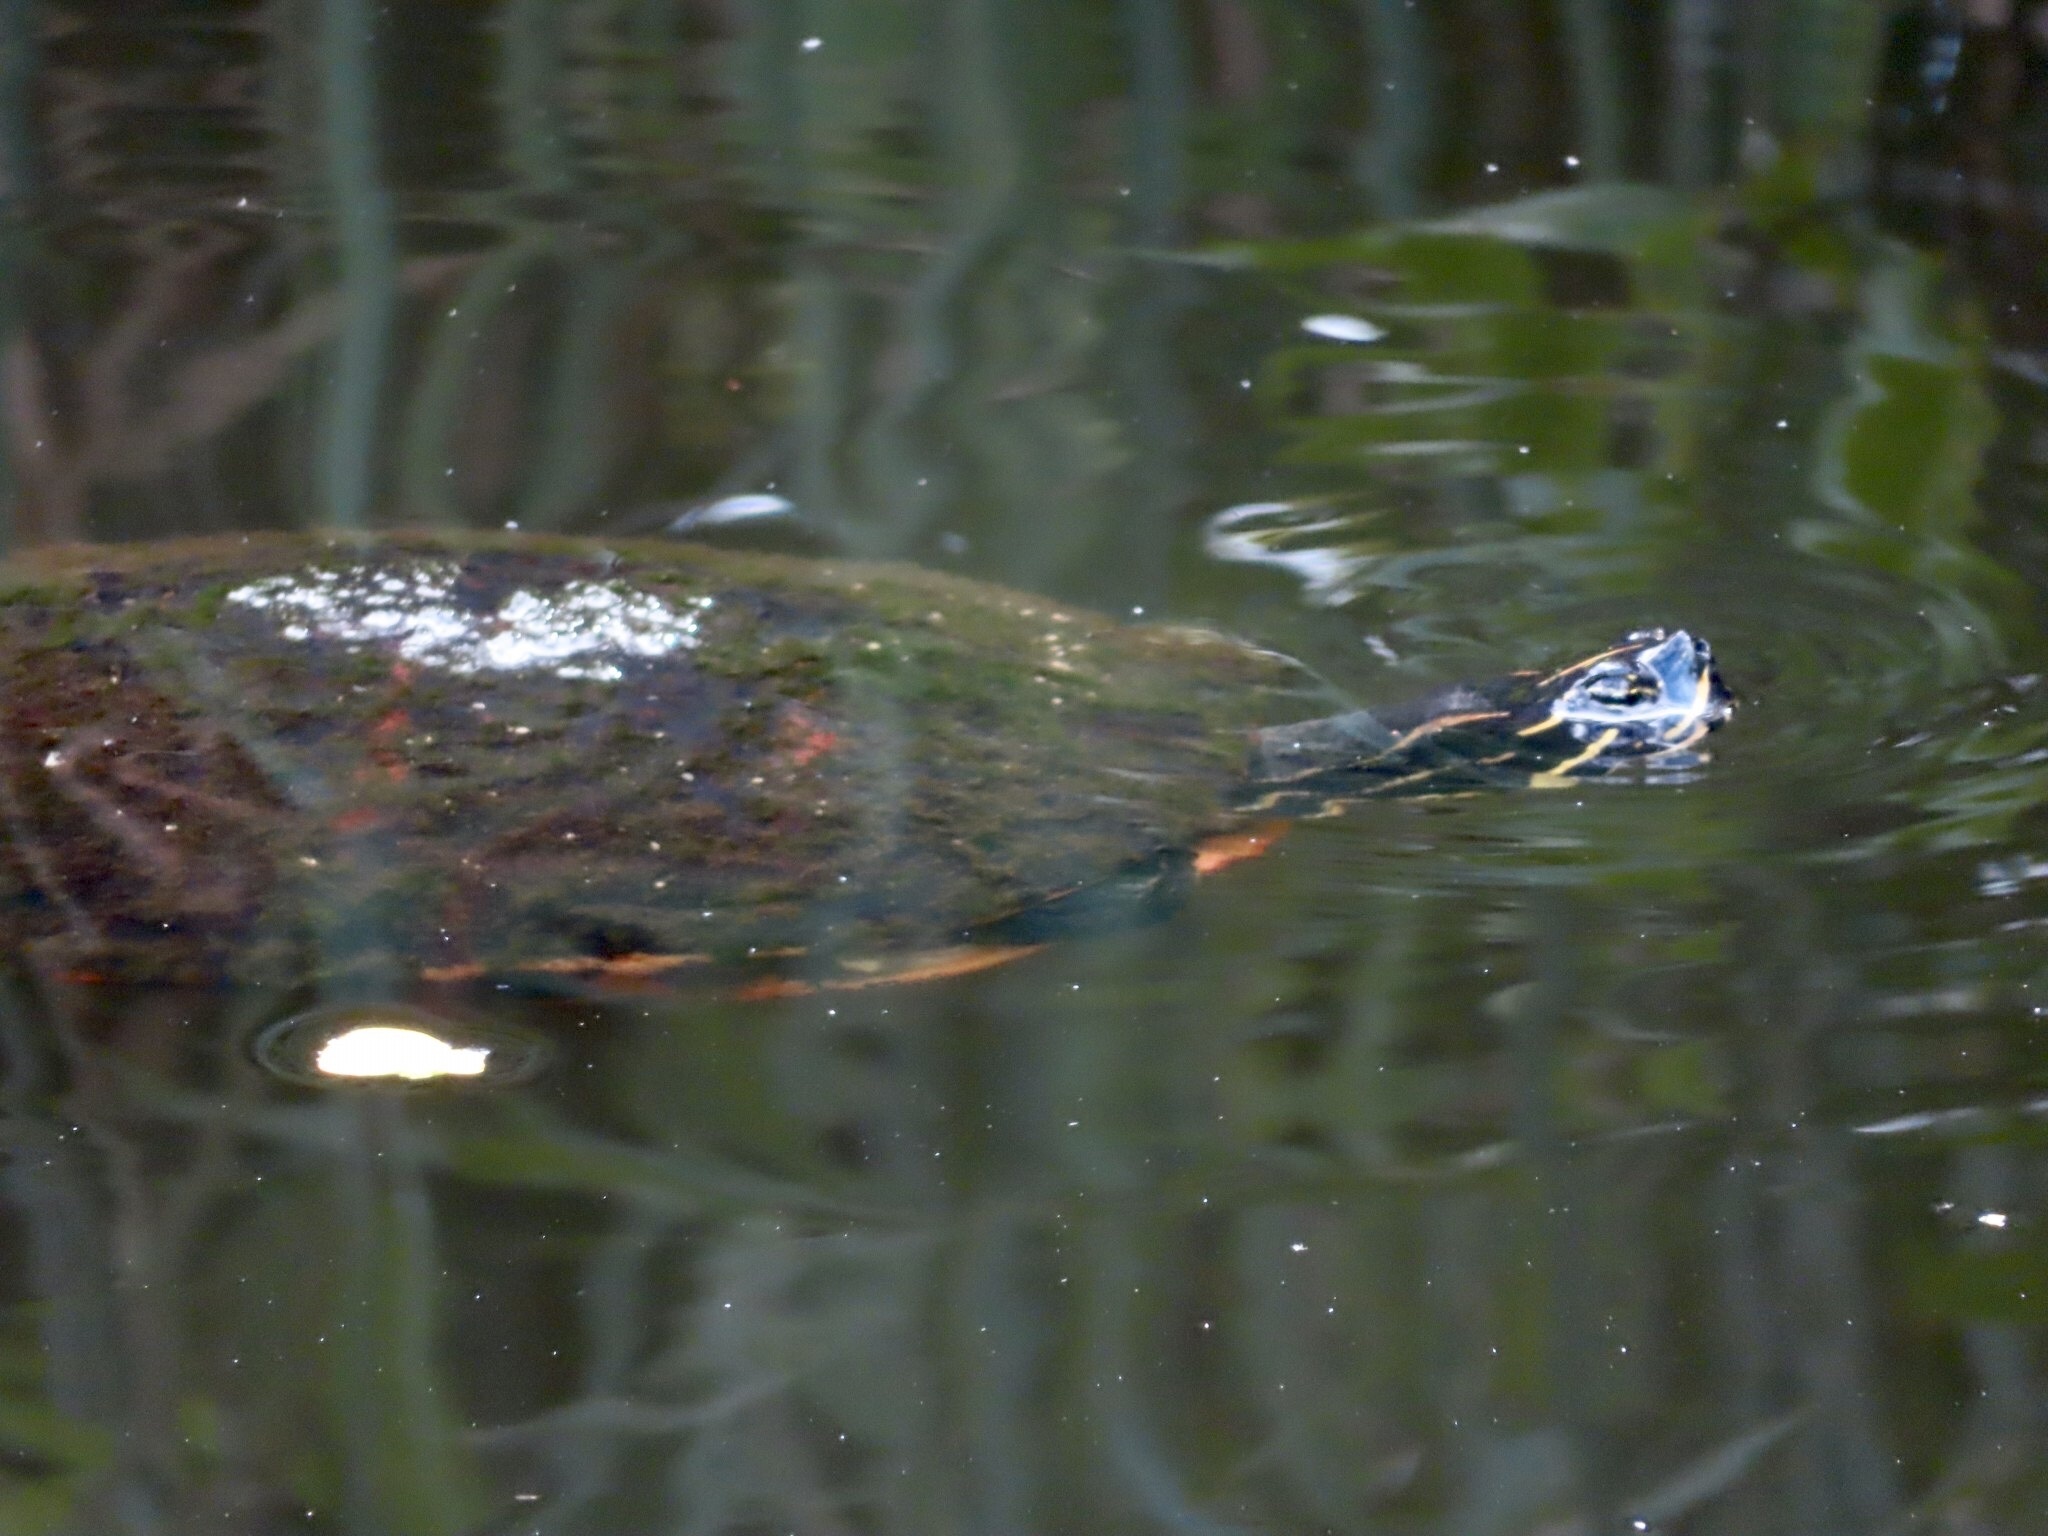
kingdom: Animalia
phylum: Chordata
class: Testudines
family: Emydidae
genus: Pseudemys
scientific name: Pseudemys nelsoni
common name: Florida red-bellied turtle
